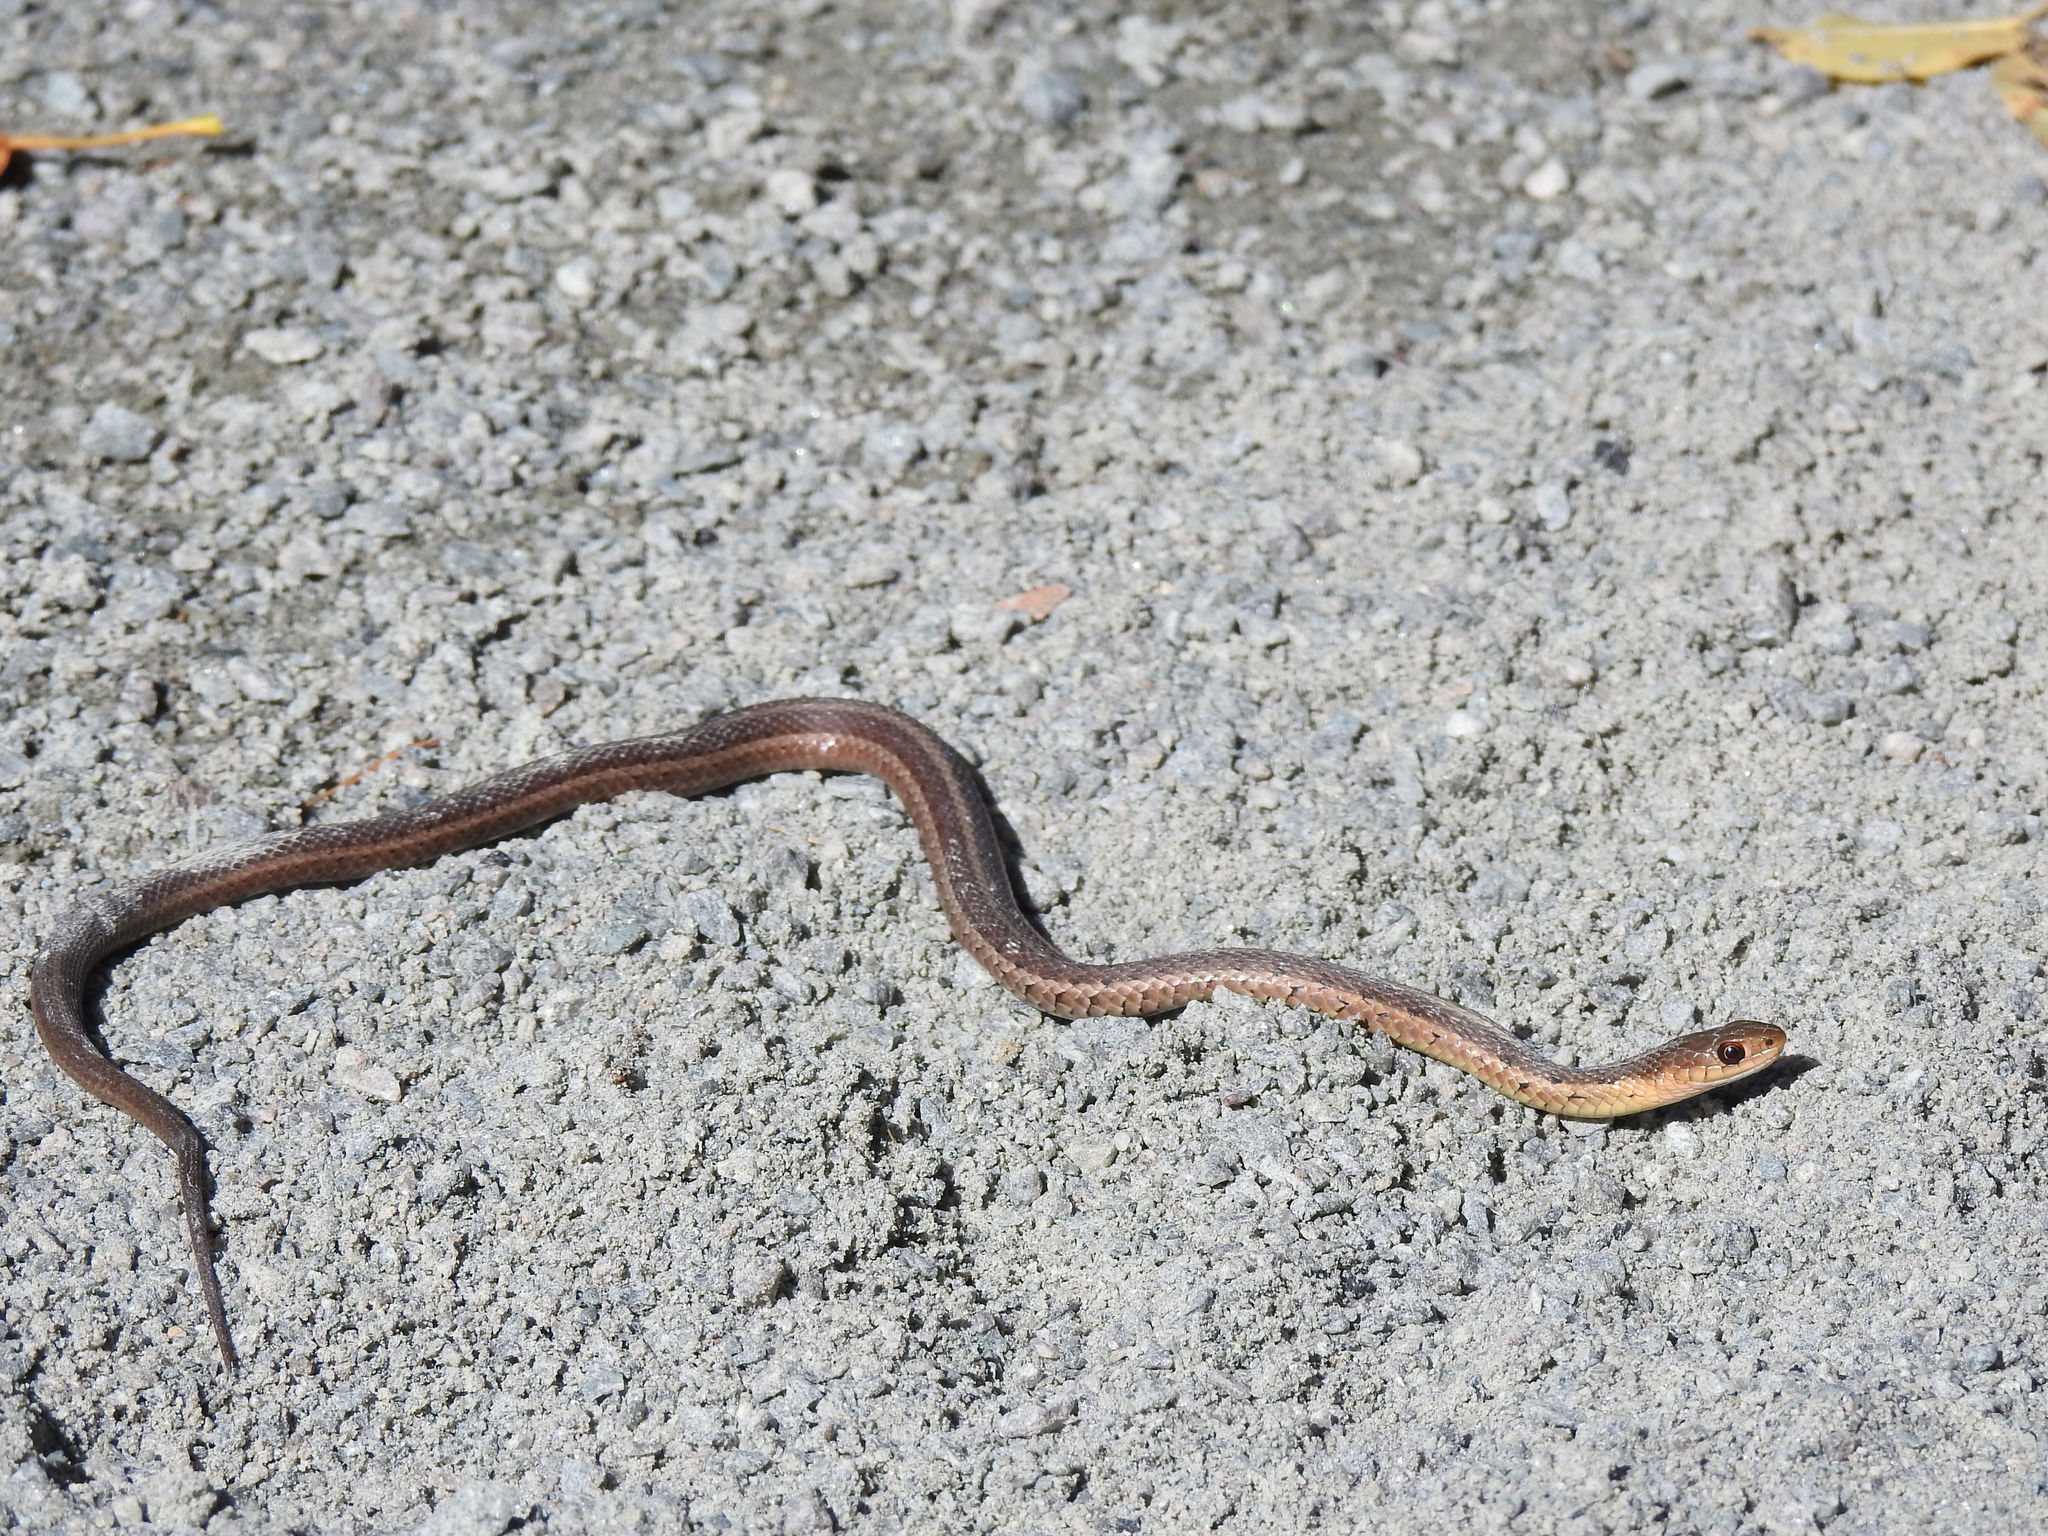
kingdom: Animalia
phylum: Chordata
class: Squamata
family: Colubridae
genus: Thamnophis
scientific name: Thamnophis sirtalis
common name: Common garter snake
